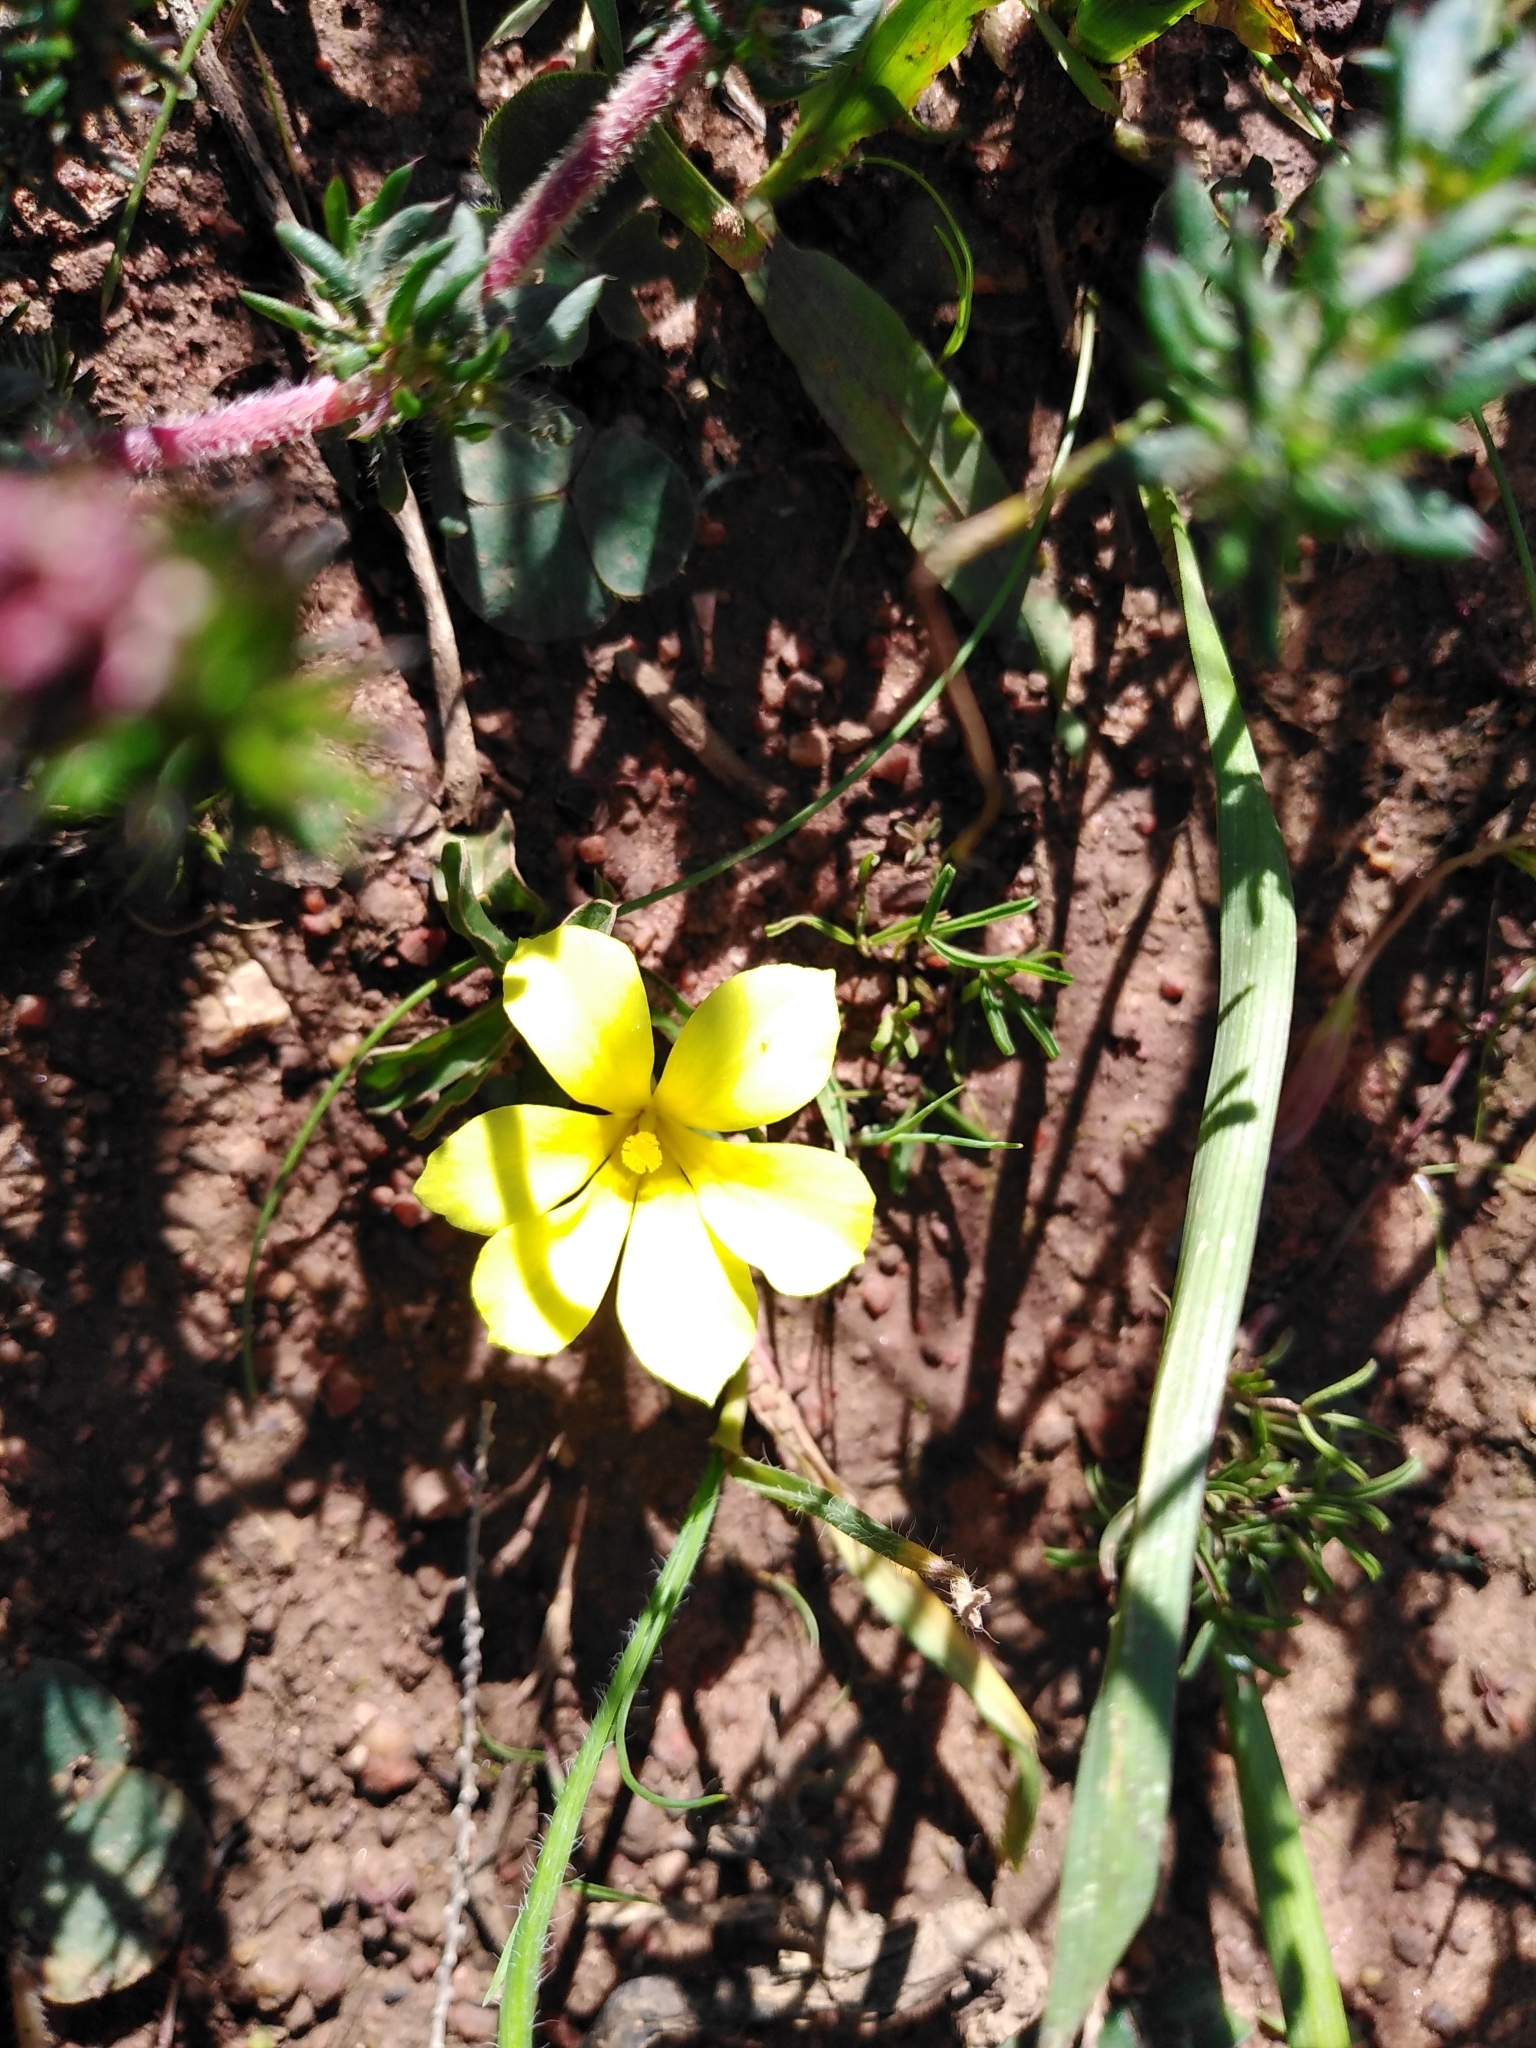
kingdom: Plantae
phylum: Tracheophyta
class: Liliopsida
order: Asparagales
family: Iridaceae
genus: Moraea
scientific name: Moraea galaxia
